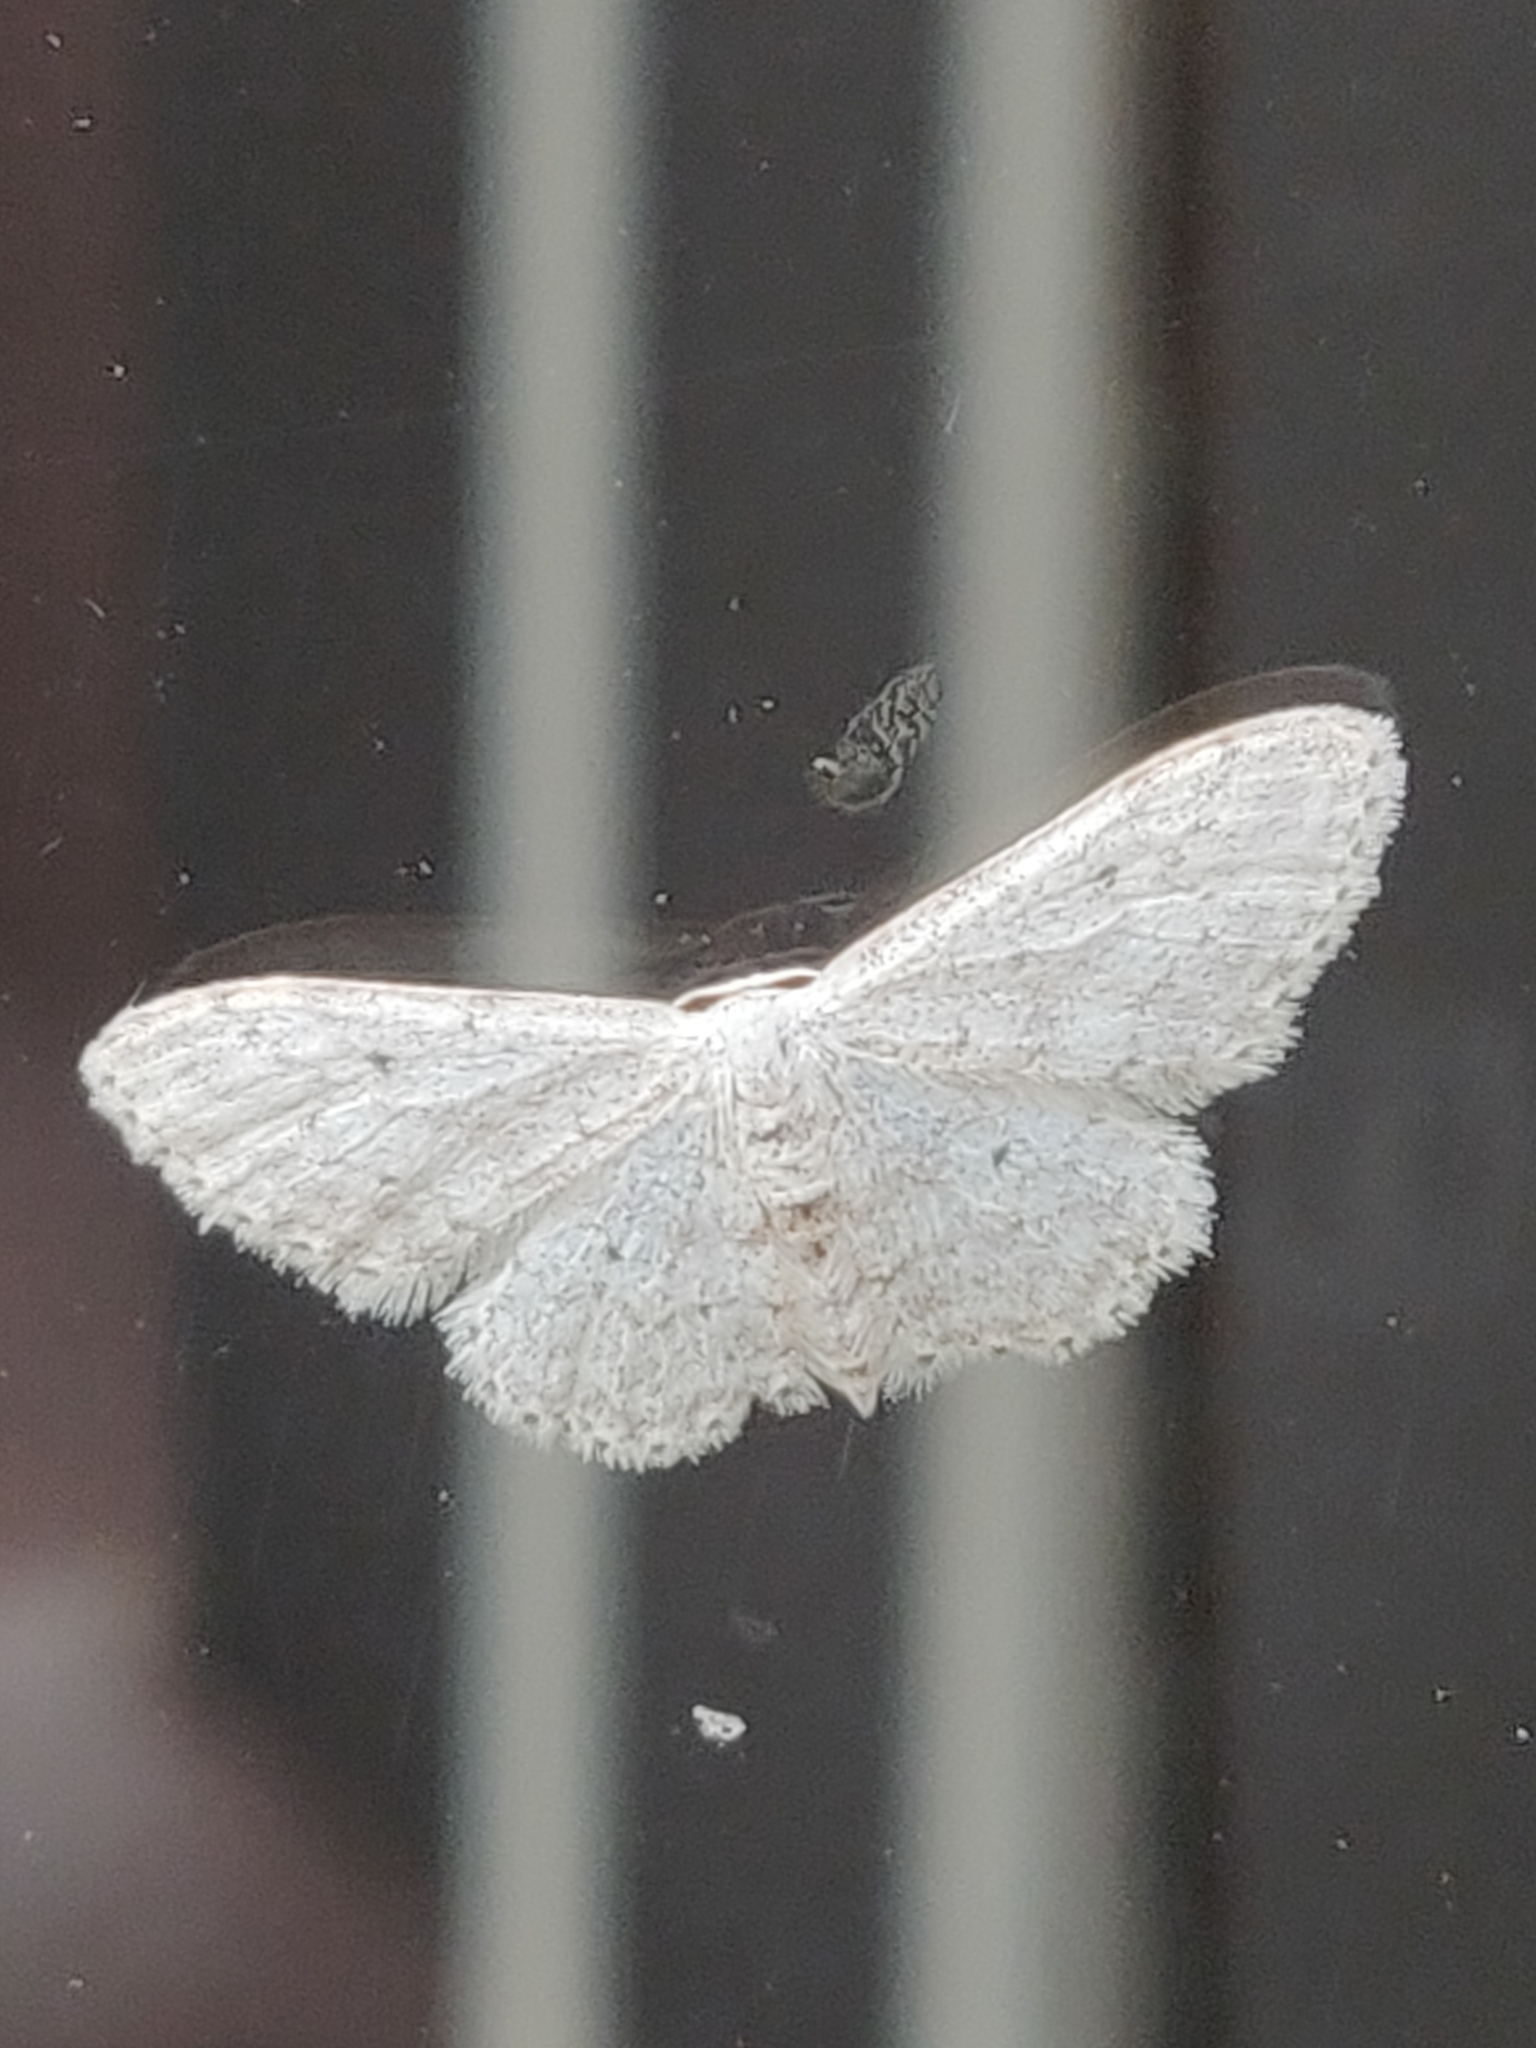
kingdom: Animalia
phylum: Arthropoda
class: Insecta
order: Lepidoptera
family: Geometridae
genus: Idaea
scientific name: Idaea seriata
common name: Small dusty wave
